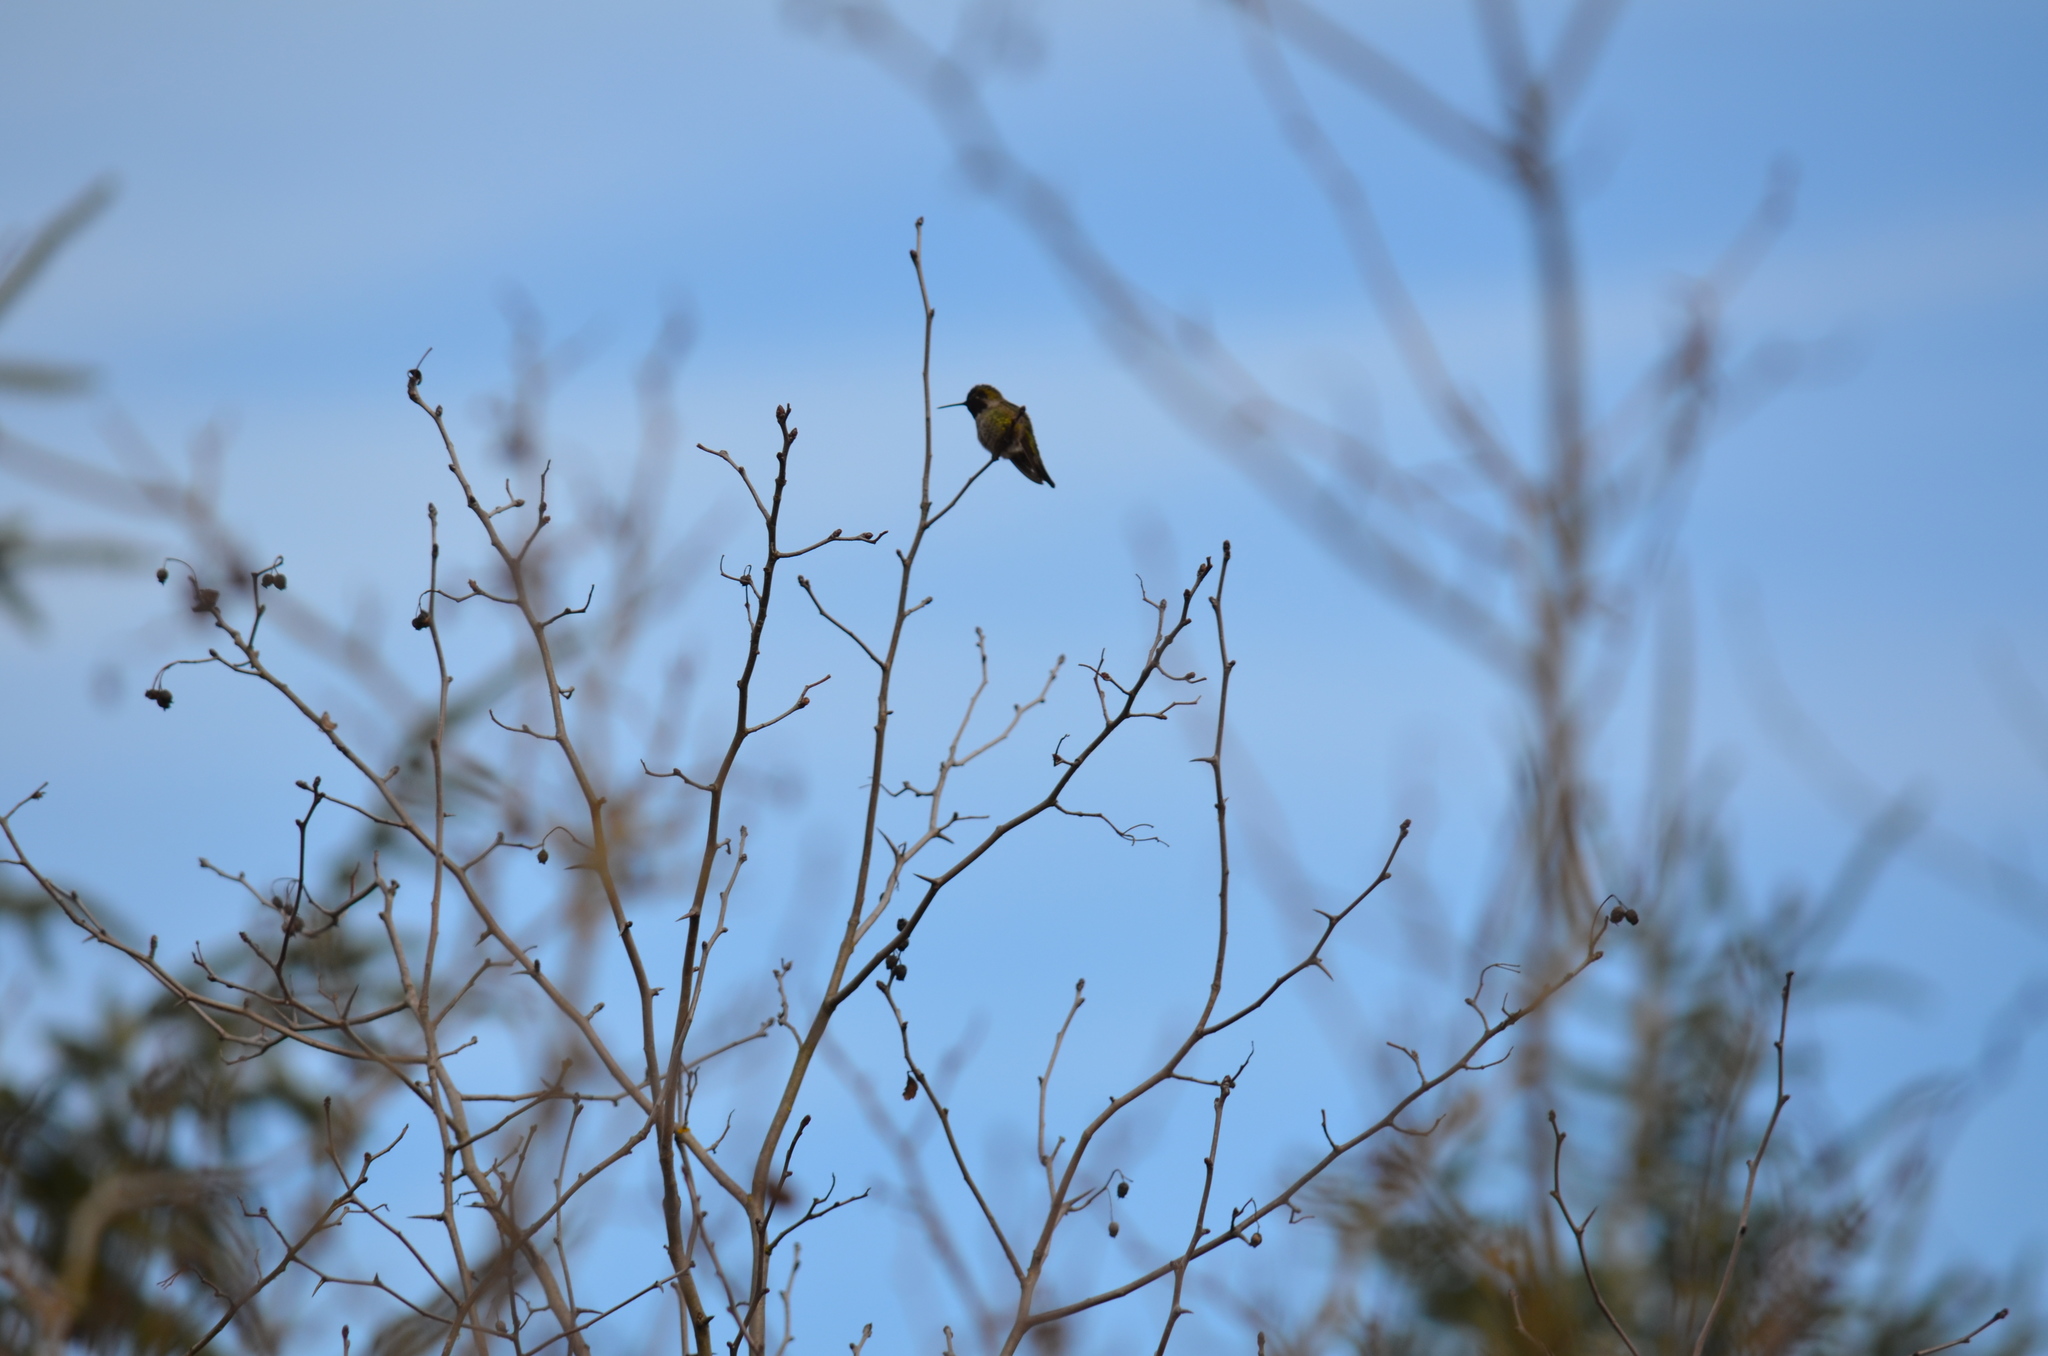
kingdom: Animalia
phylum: Chordata
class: Aves
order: Apodiformes
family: Trochilidae
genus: Calypte
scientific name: Calypte anna
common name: Anna's hummingbird
